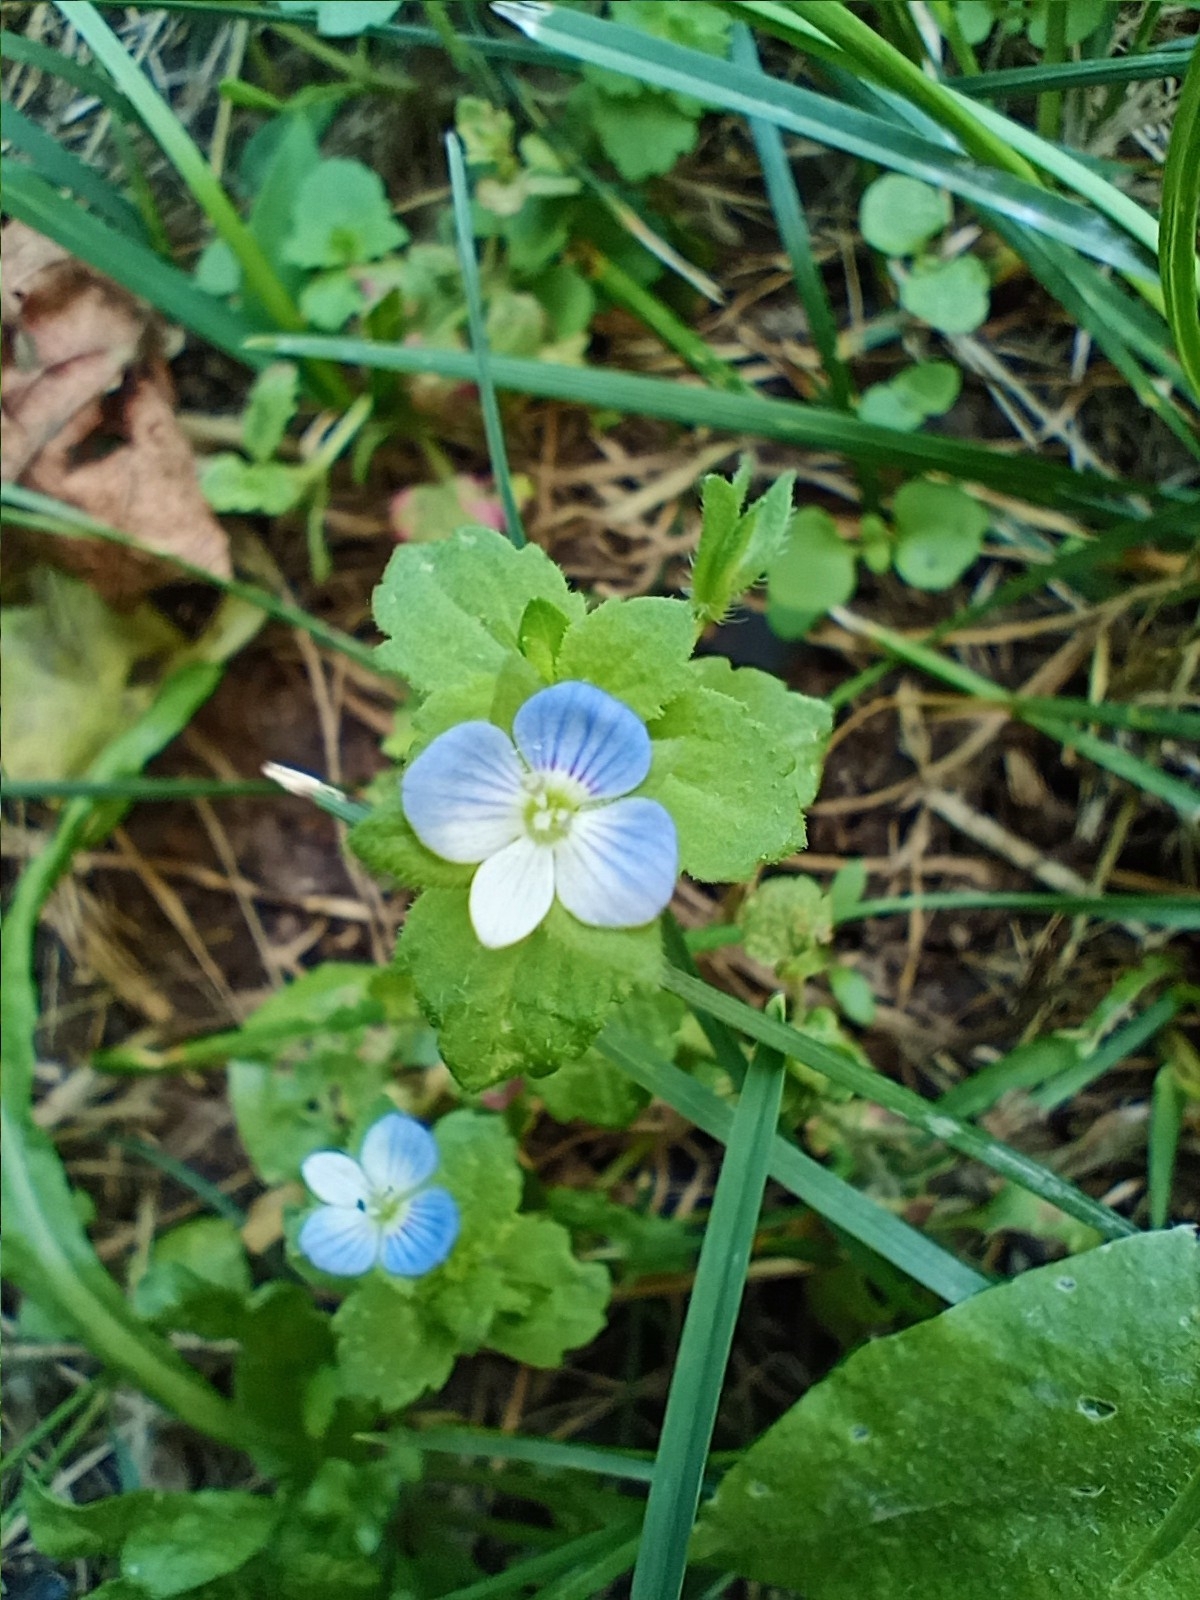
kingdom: Plantae
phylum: Tracheophyta
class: Magnoliopsida
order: Lamiales
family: Plantaginaceae
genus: Veronica
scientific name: Veronica persica
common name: Common field-speedwell
